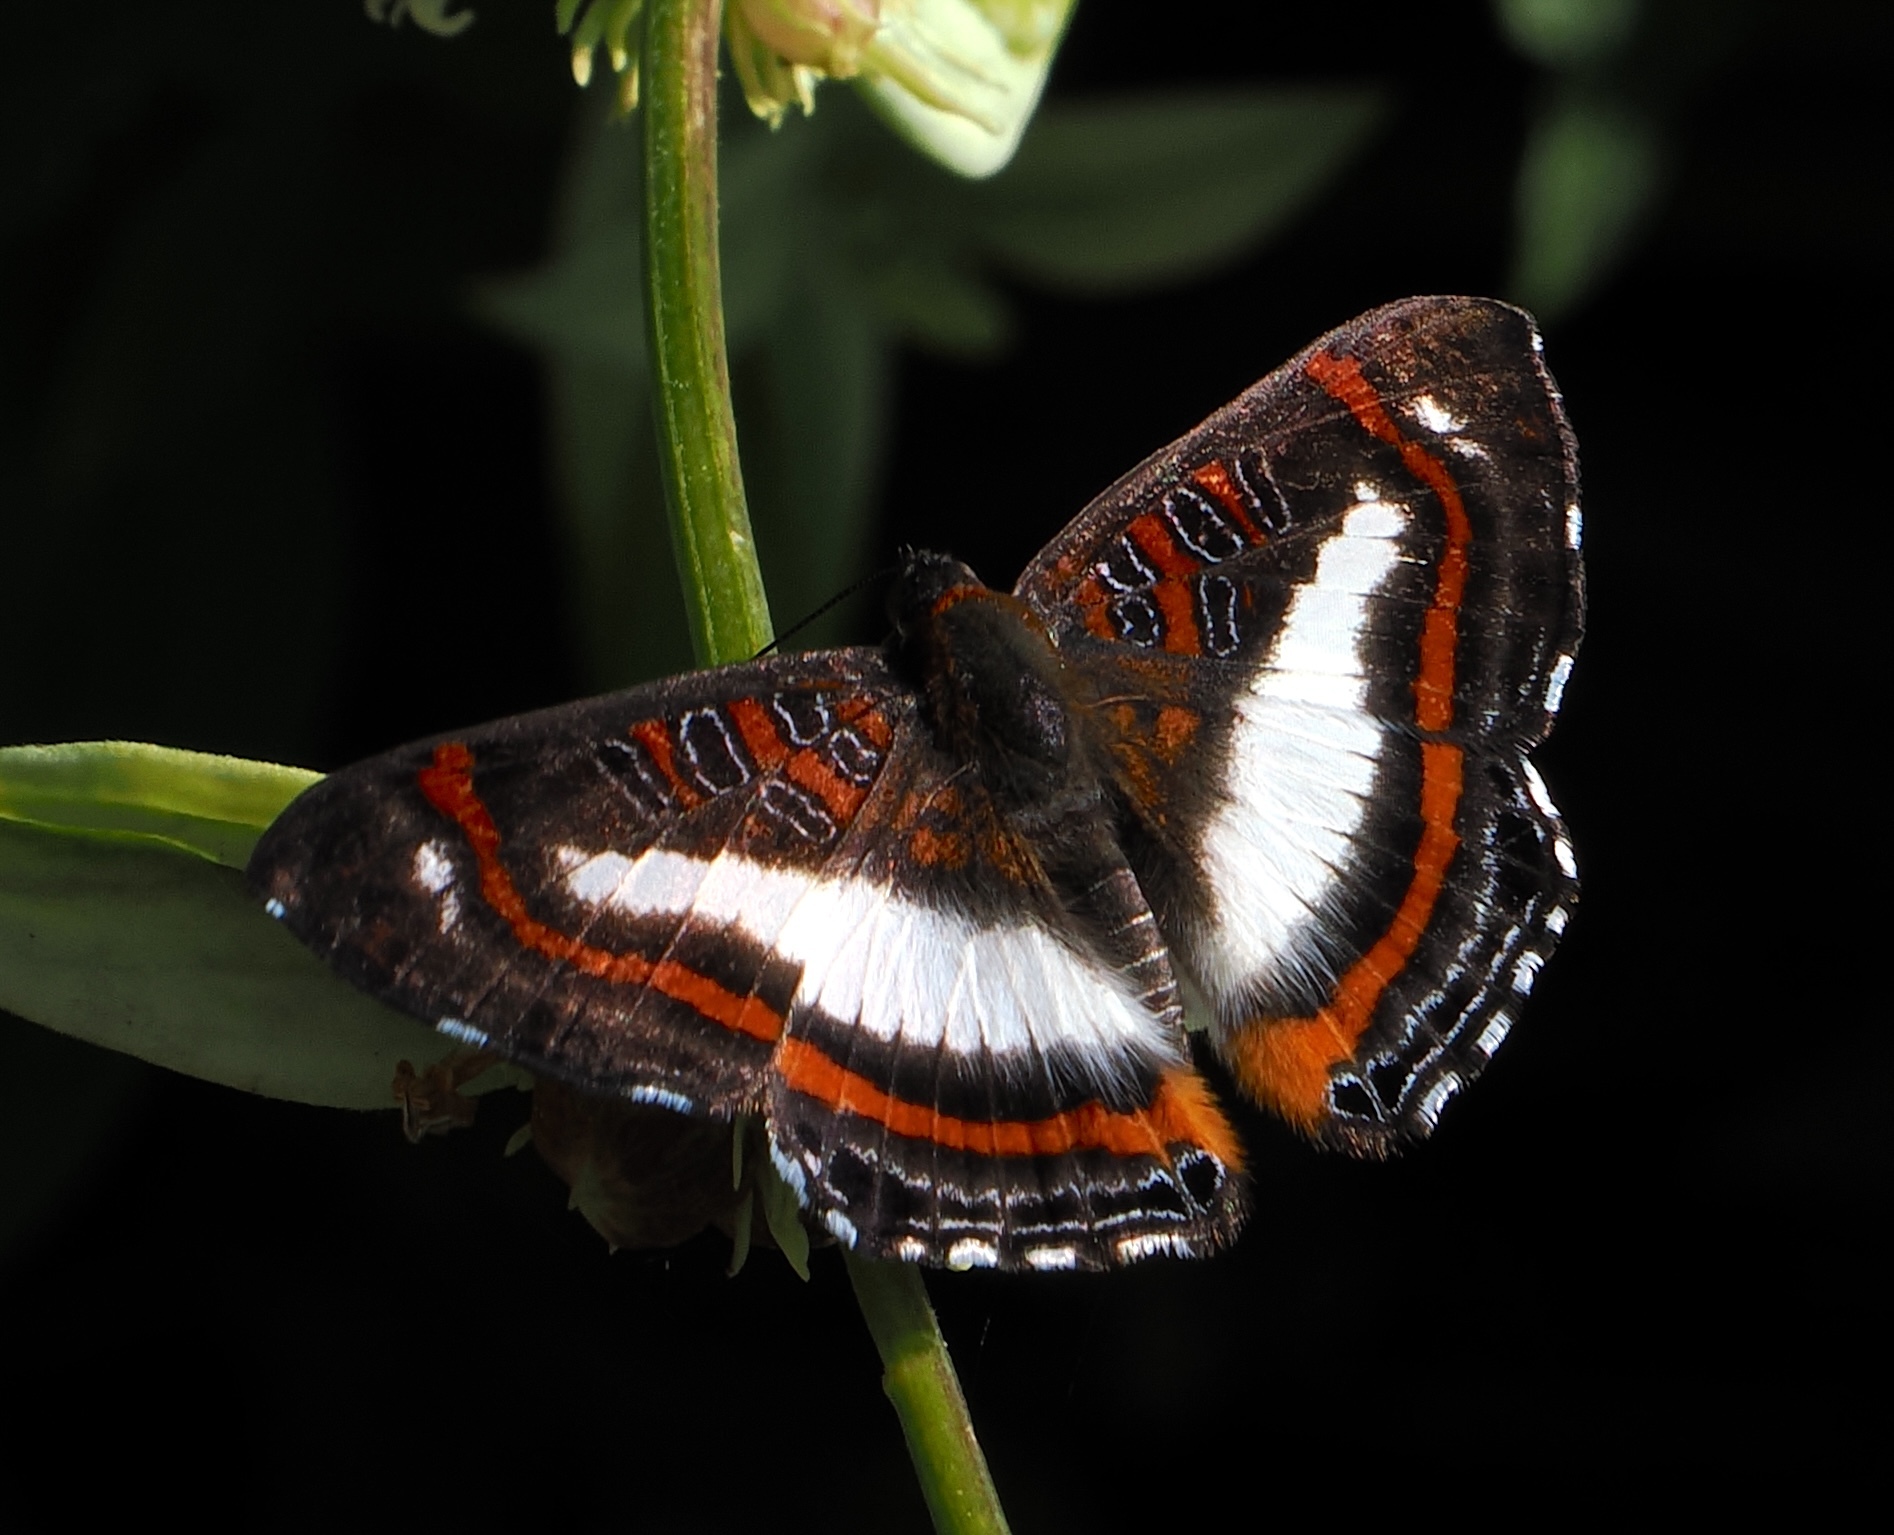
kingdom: Animalia
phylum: Arthropoda
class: Insecta
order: Lepidoptera
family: Riodinidae
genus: Synargis
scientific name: Synargis
